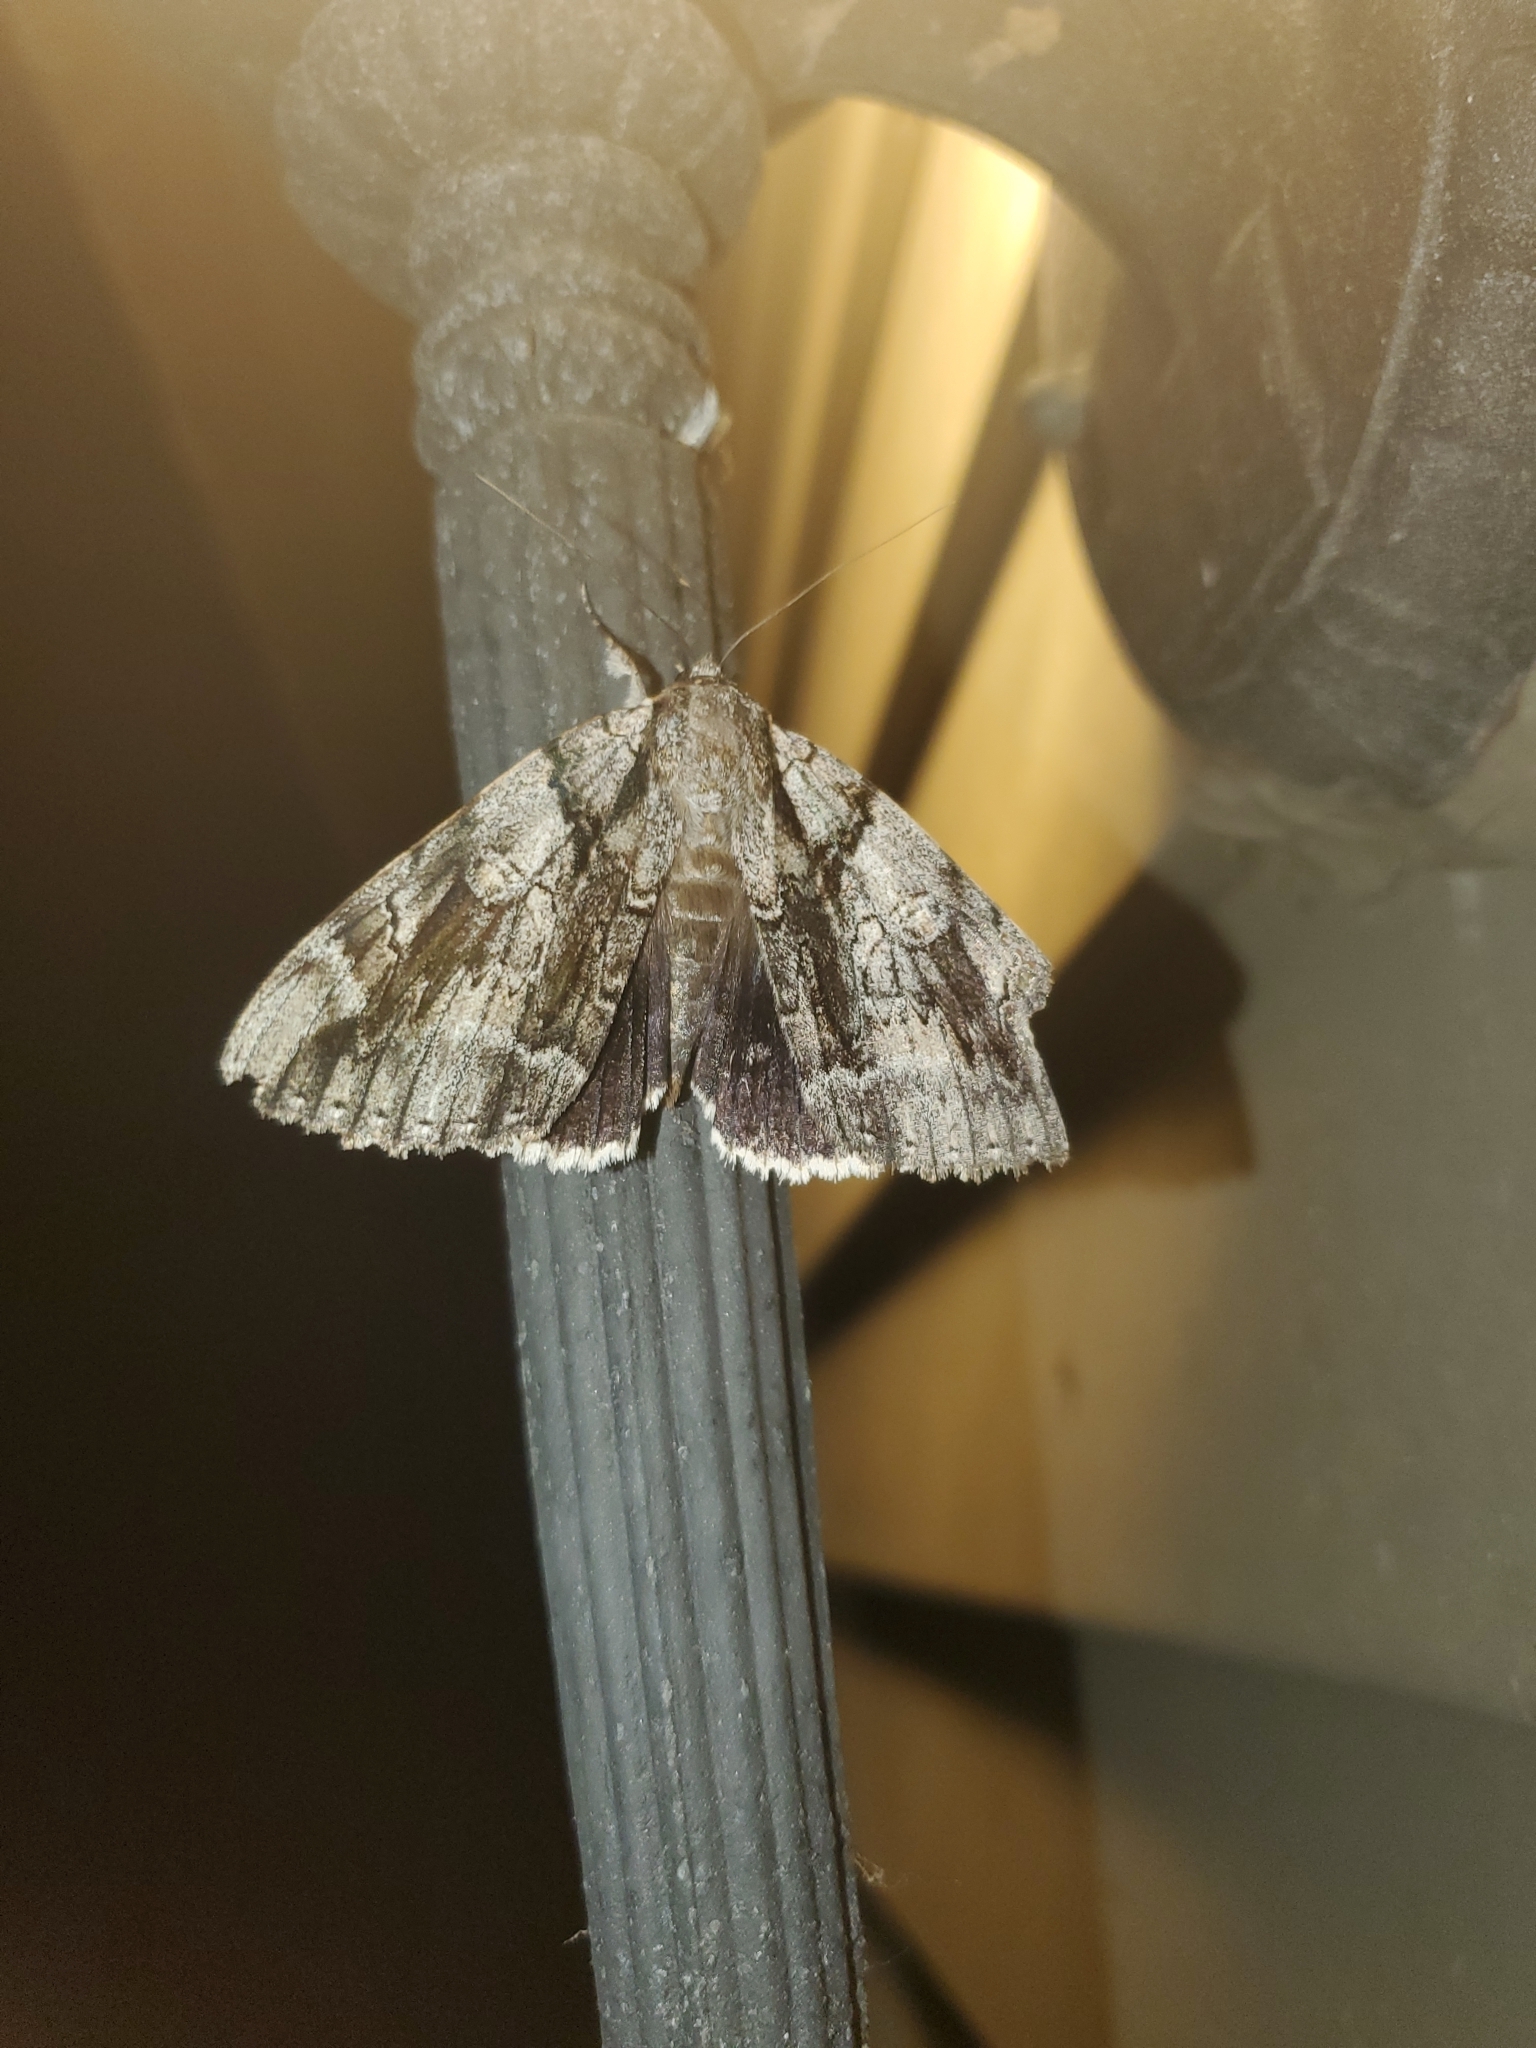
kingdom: Animalia
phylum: Arthropoda
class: Insecta
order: Lepidoptera
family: Erebidae
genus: Catocala
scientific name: Catocala vidua
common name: The widow
